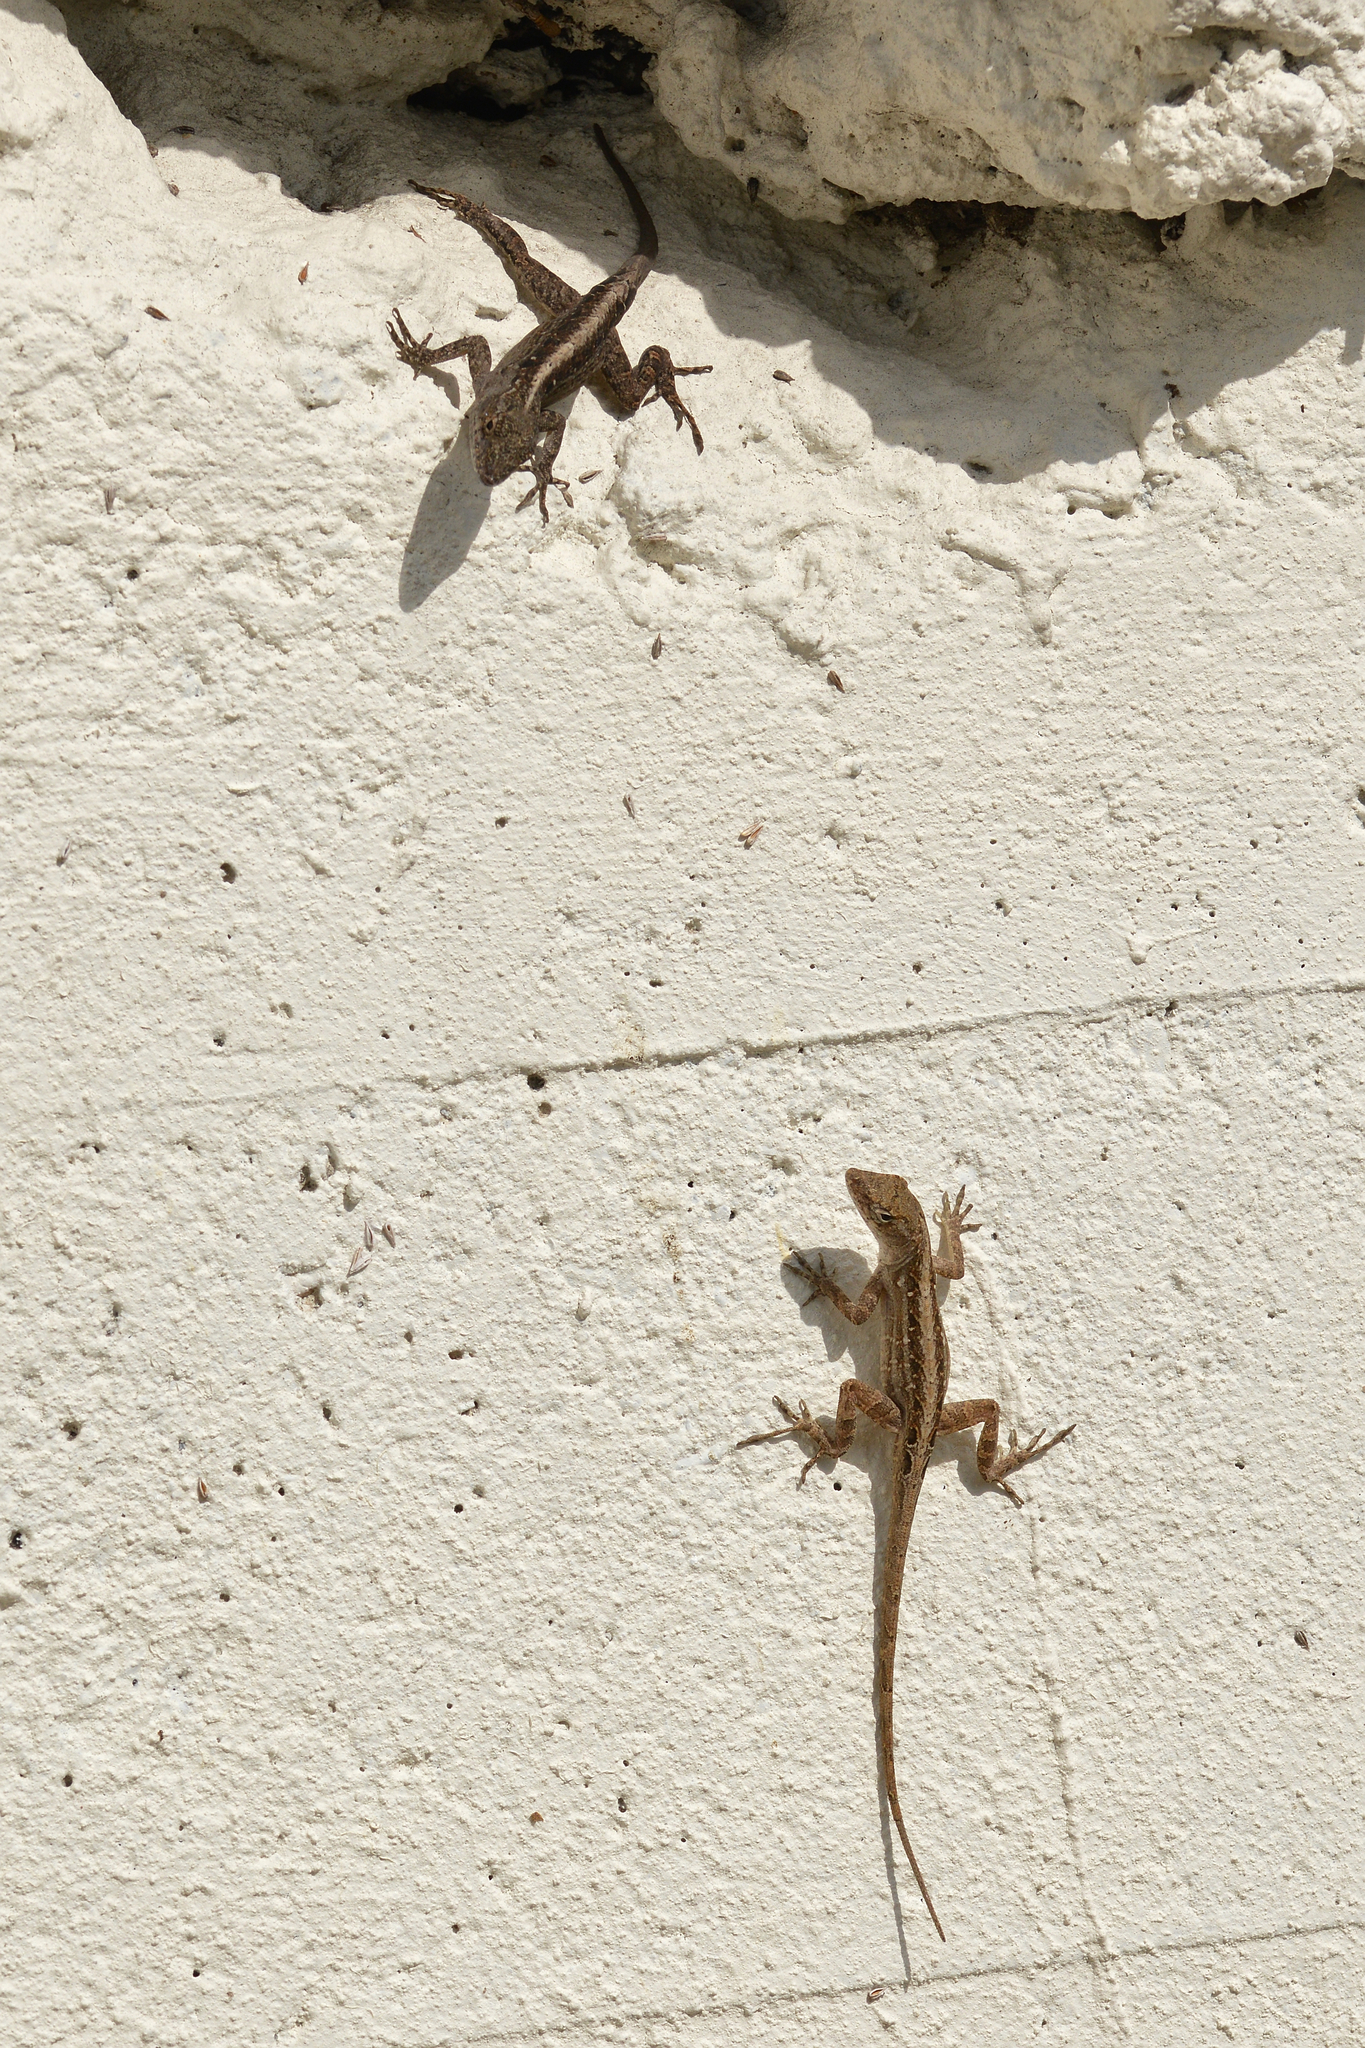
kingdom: Animalia
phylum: Chordata
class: Squamata
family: Dactyloidae
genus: Anolis
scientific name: Anolis sagrei
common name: Brown anole
